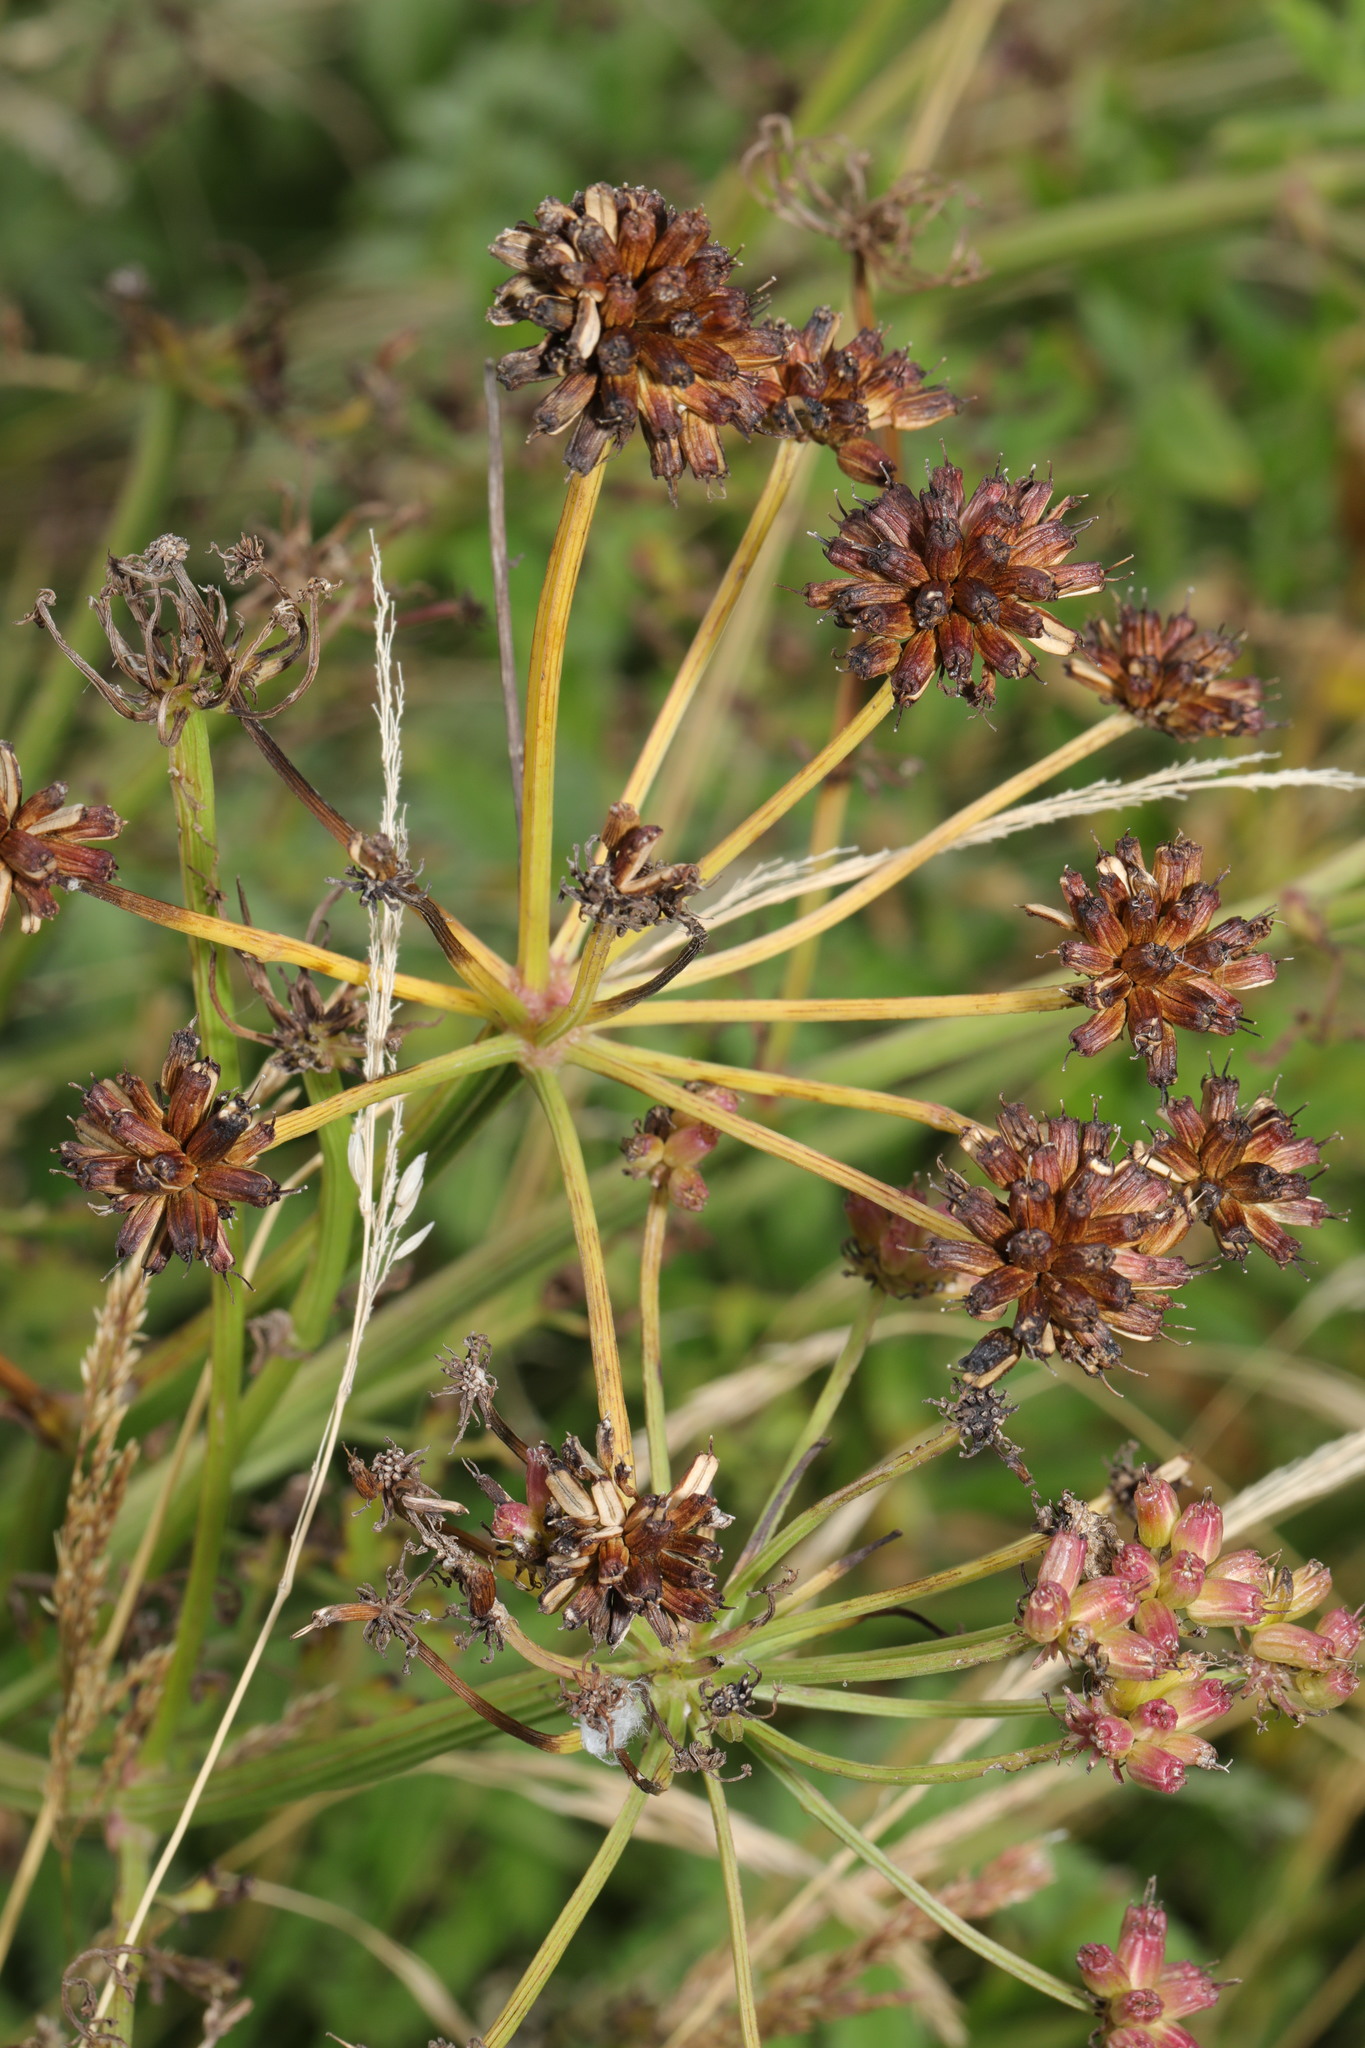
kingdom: Plantae
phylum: Tracheophyta
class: Magnoliopsida
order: Apiales
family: Apiaceae
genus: Oenanthe
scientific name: Oenanthe crocata
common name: Hemlock water-dropwort
